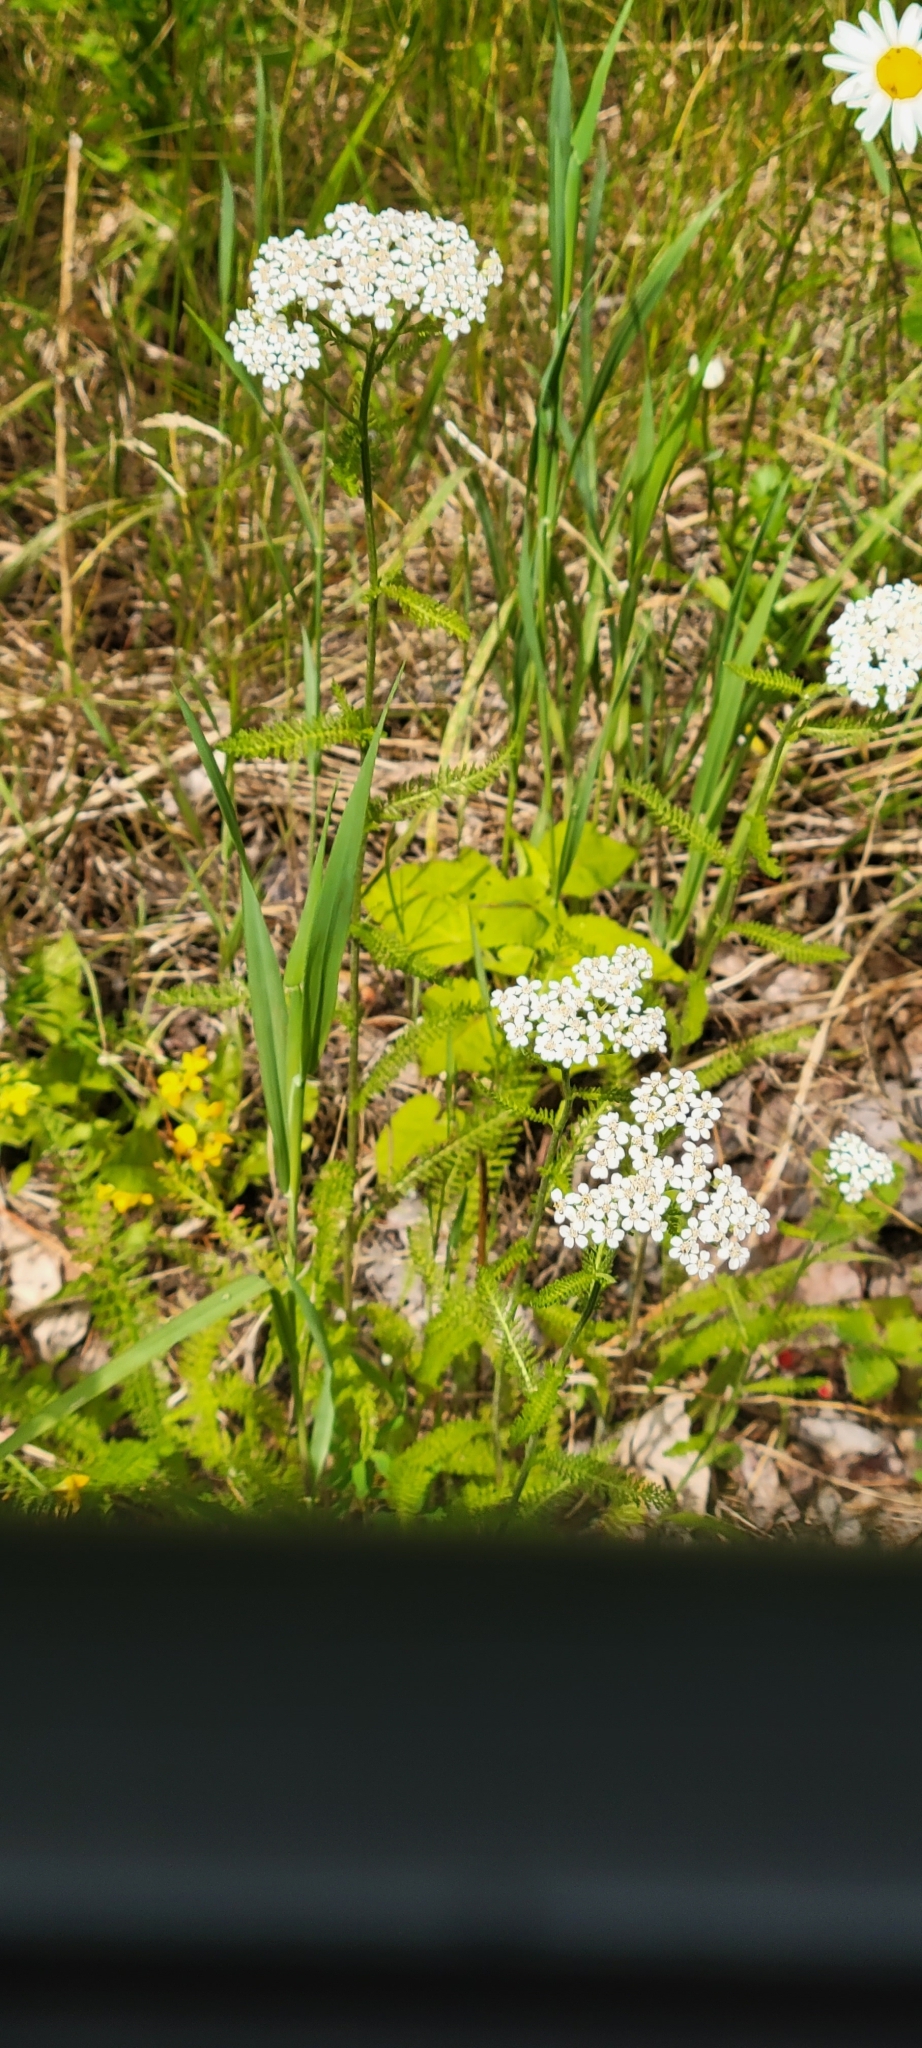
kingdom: Plantae
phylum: Tracheophyta
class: Magnoliopsida
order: Asterales
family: Asteraceae
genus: Achillea
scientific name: Achillea millefolium
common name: Yarrow
